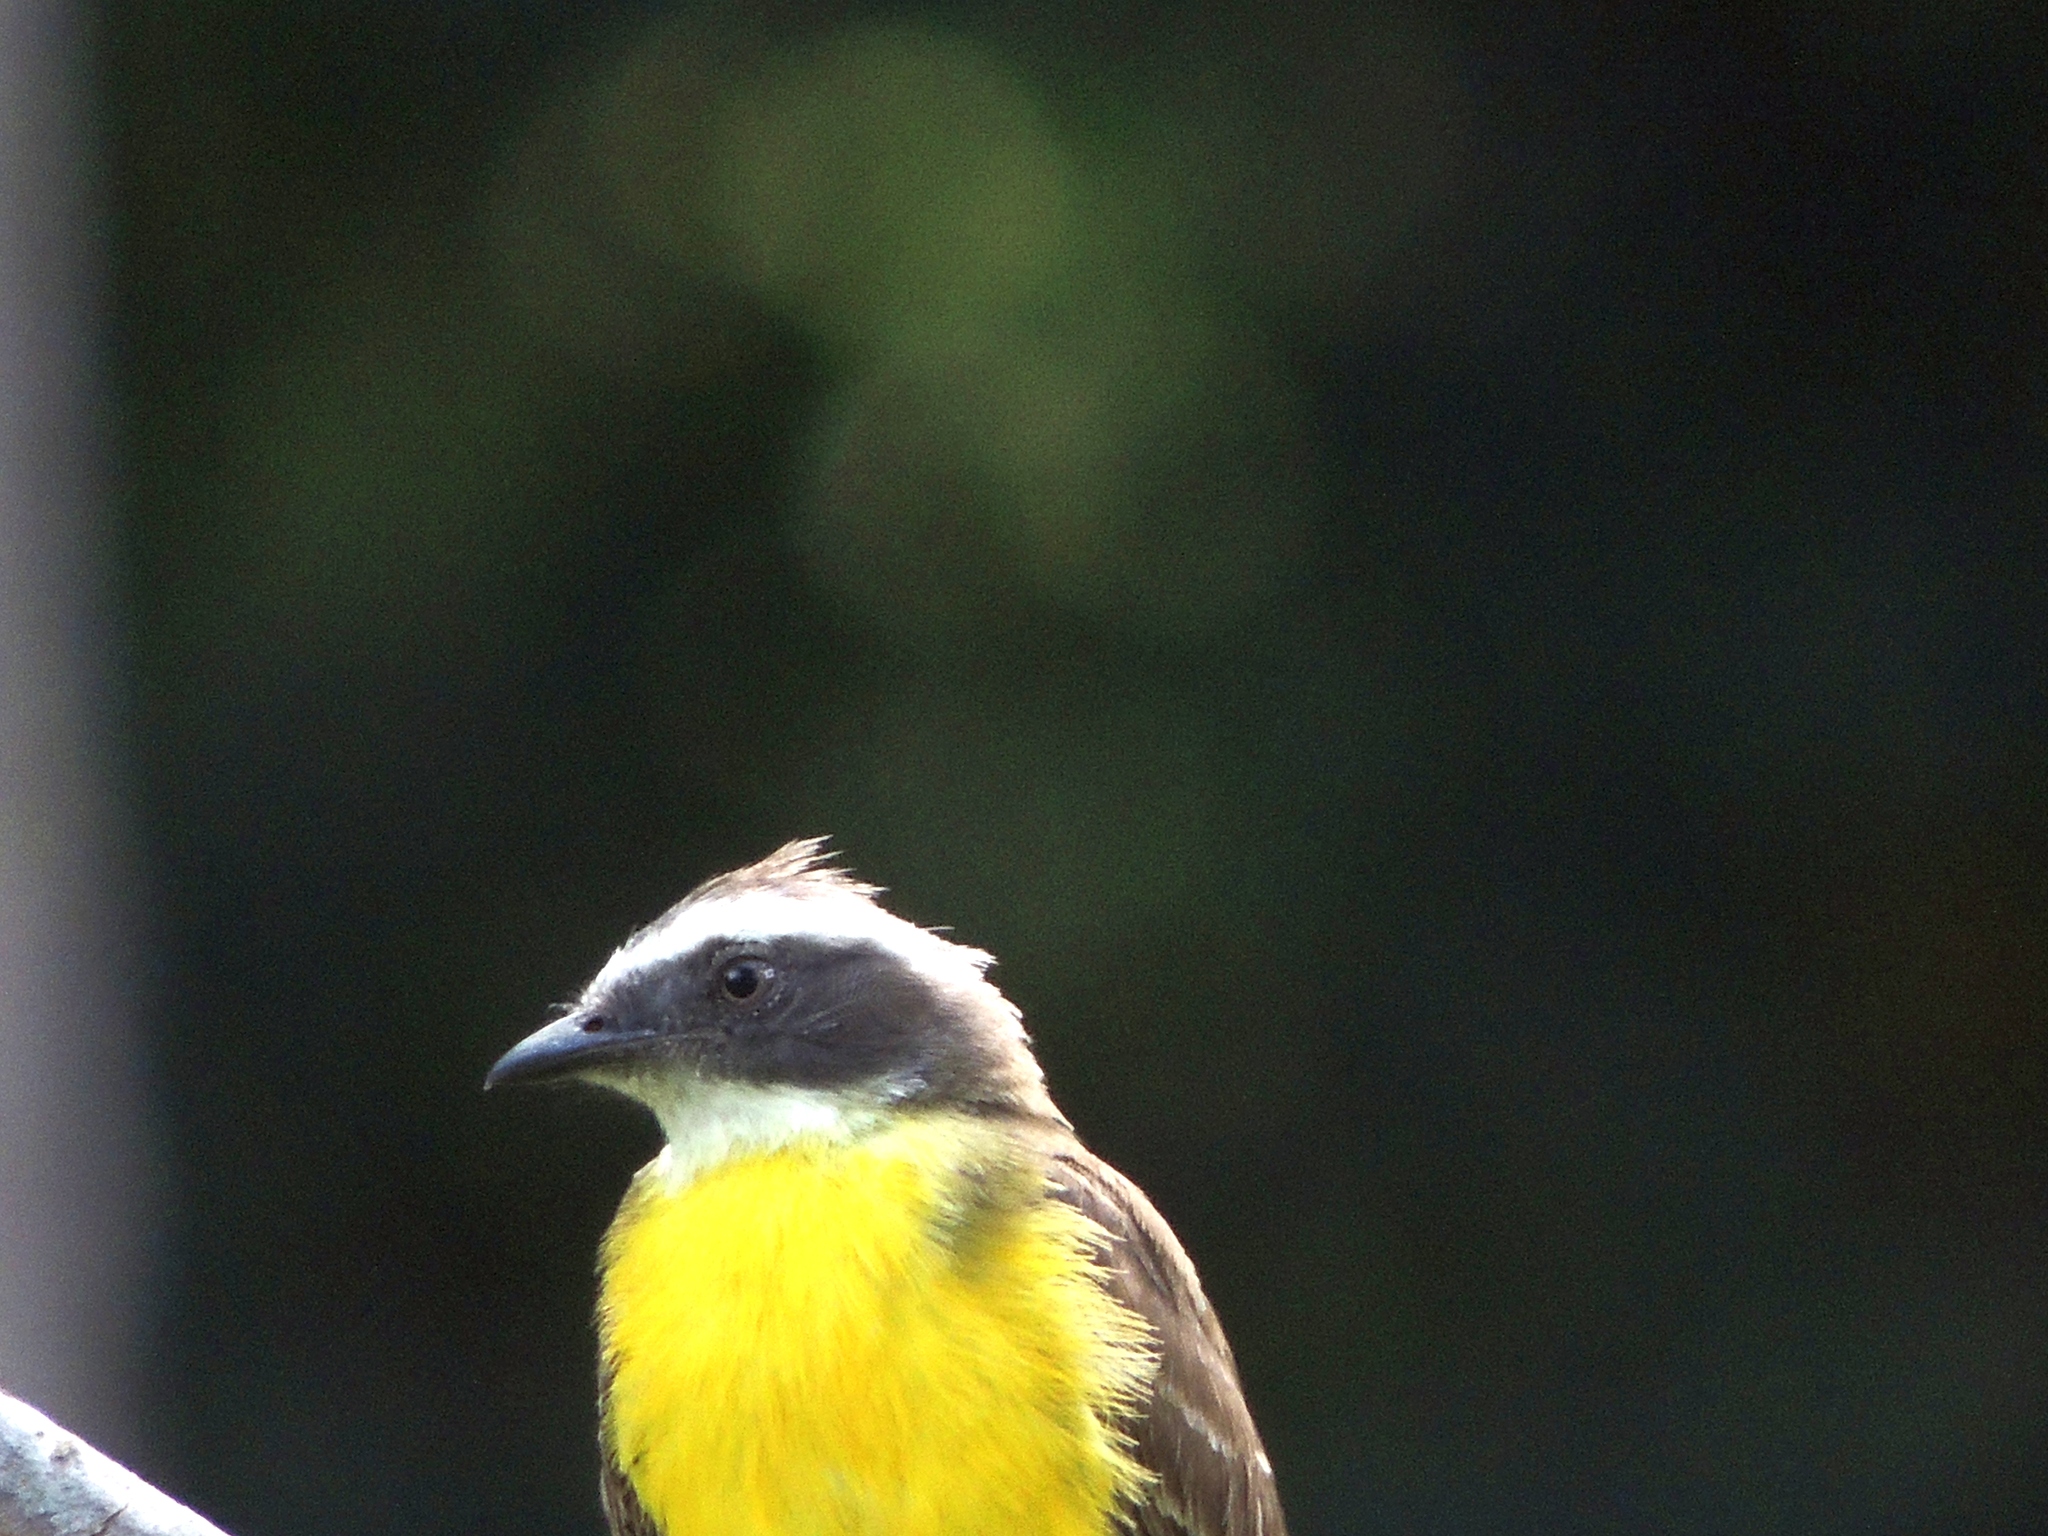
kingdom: Animalia
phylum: Chordata
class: Aves
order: Passeriformes
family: Tyrannidae
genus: Myiozetetes
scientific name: Myiozetetes similis
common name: Social flycatcher
